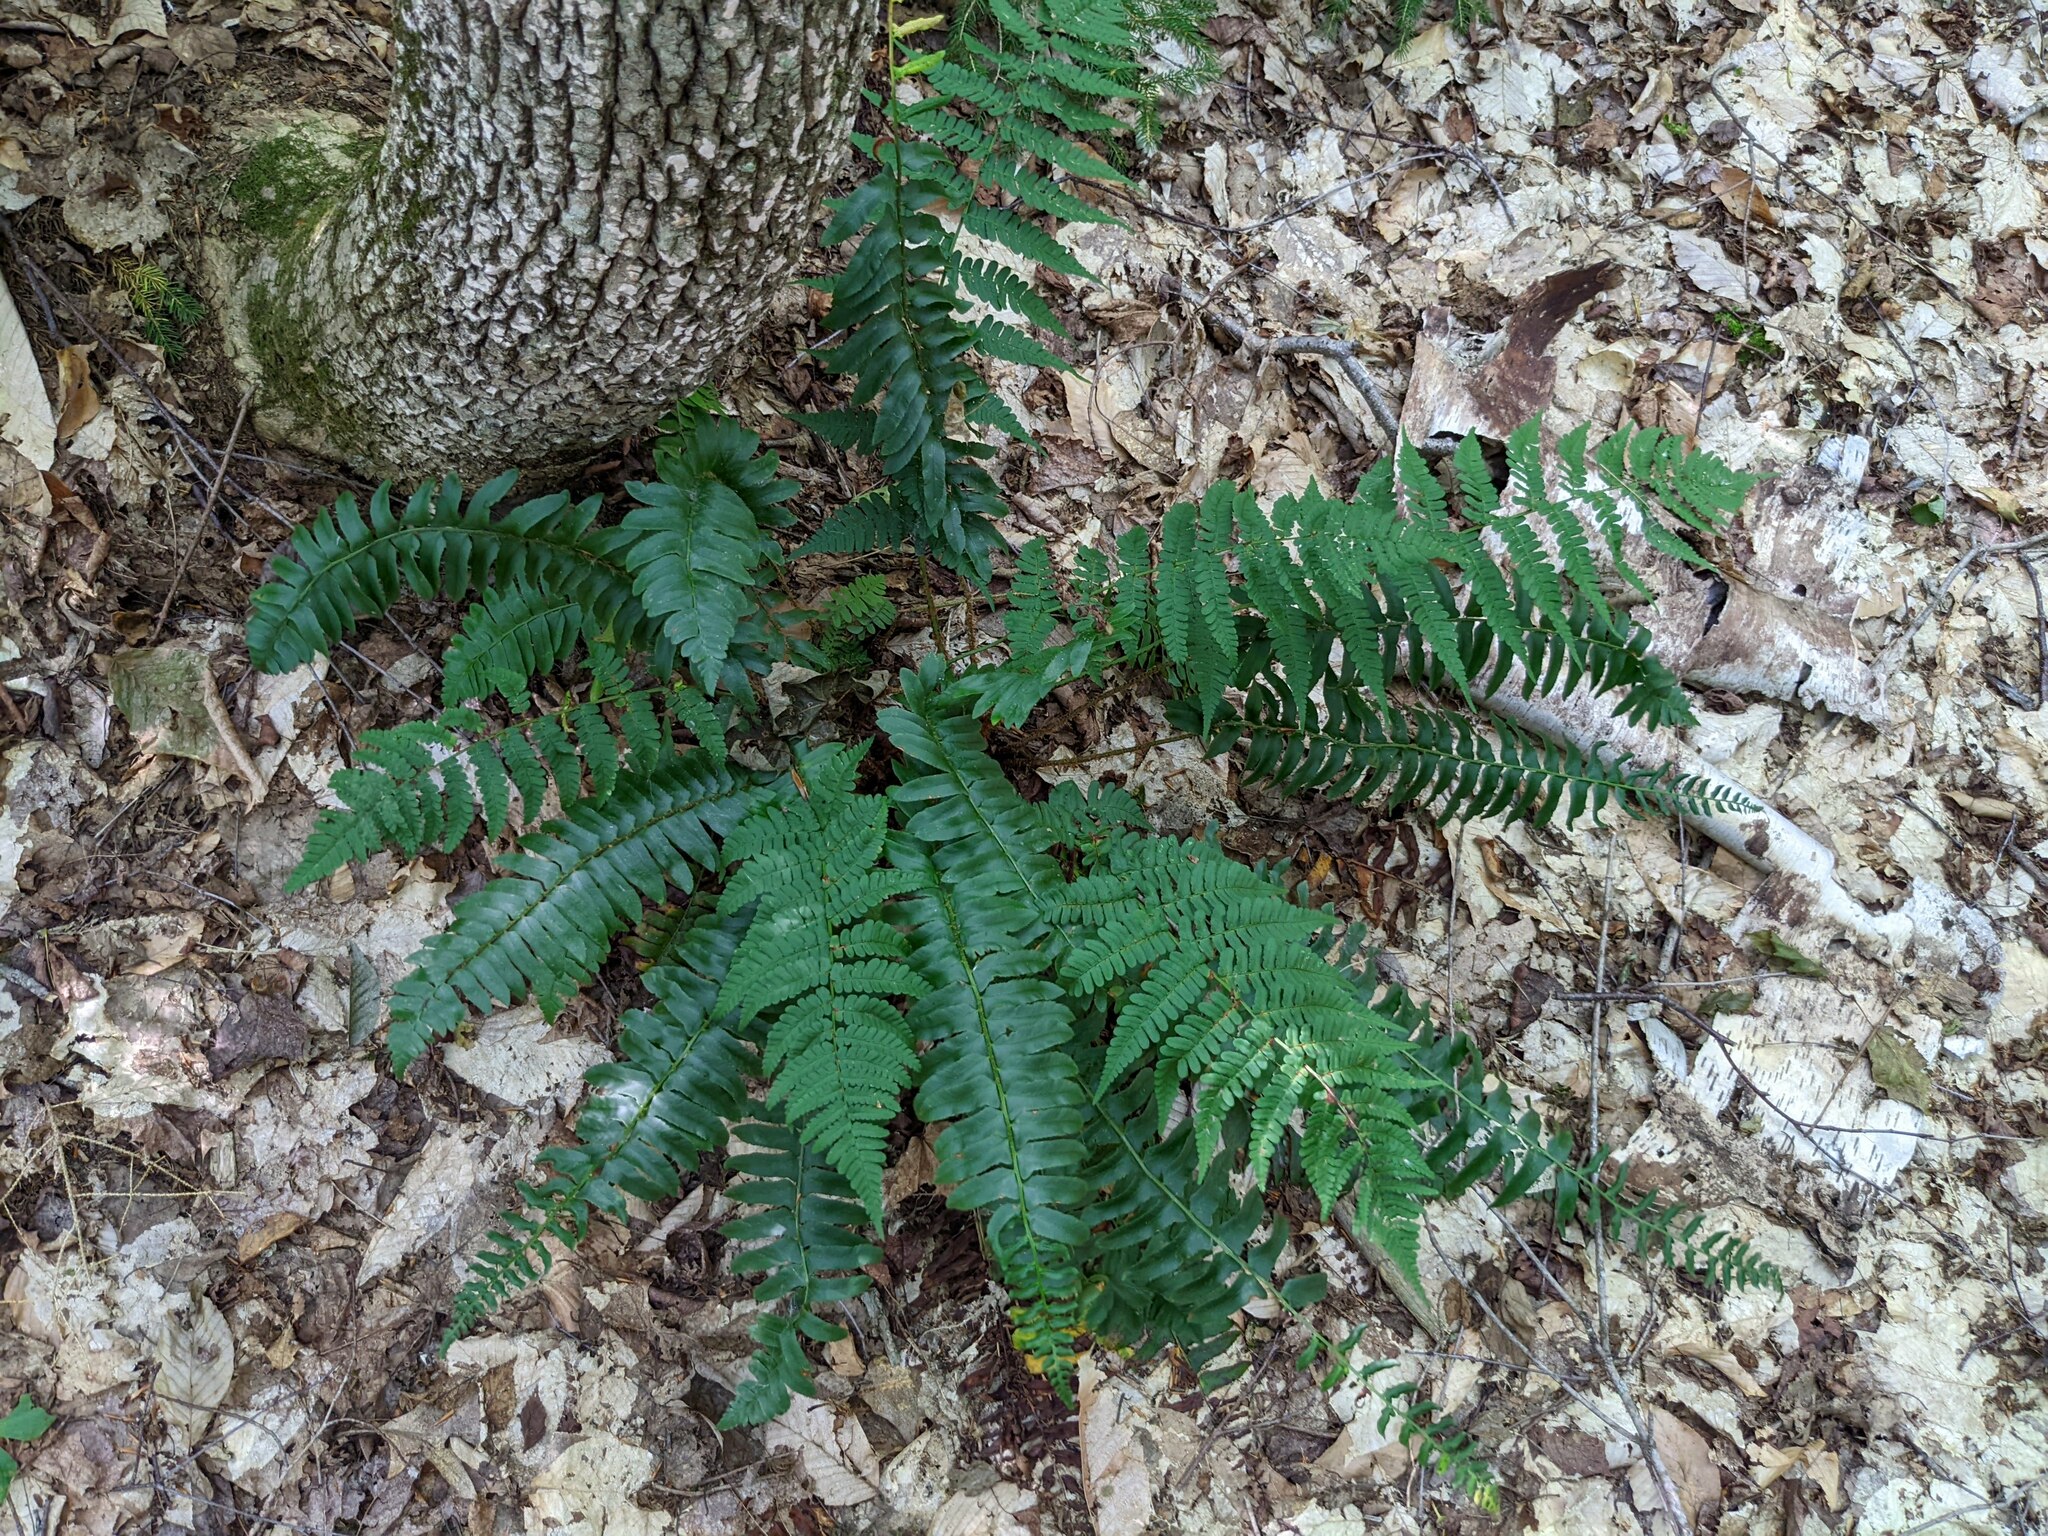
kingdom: Plantae
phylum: Tracheophyta
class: Polypodiopsida
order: Polypodiales
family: Dryopteridaceae
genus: Polystichum
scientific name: Polystichum acrostichoides
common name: Christmas fern
